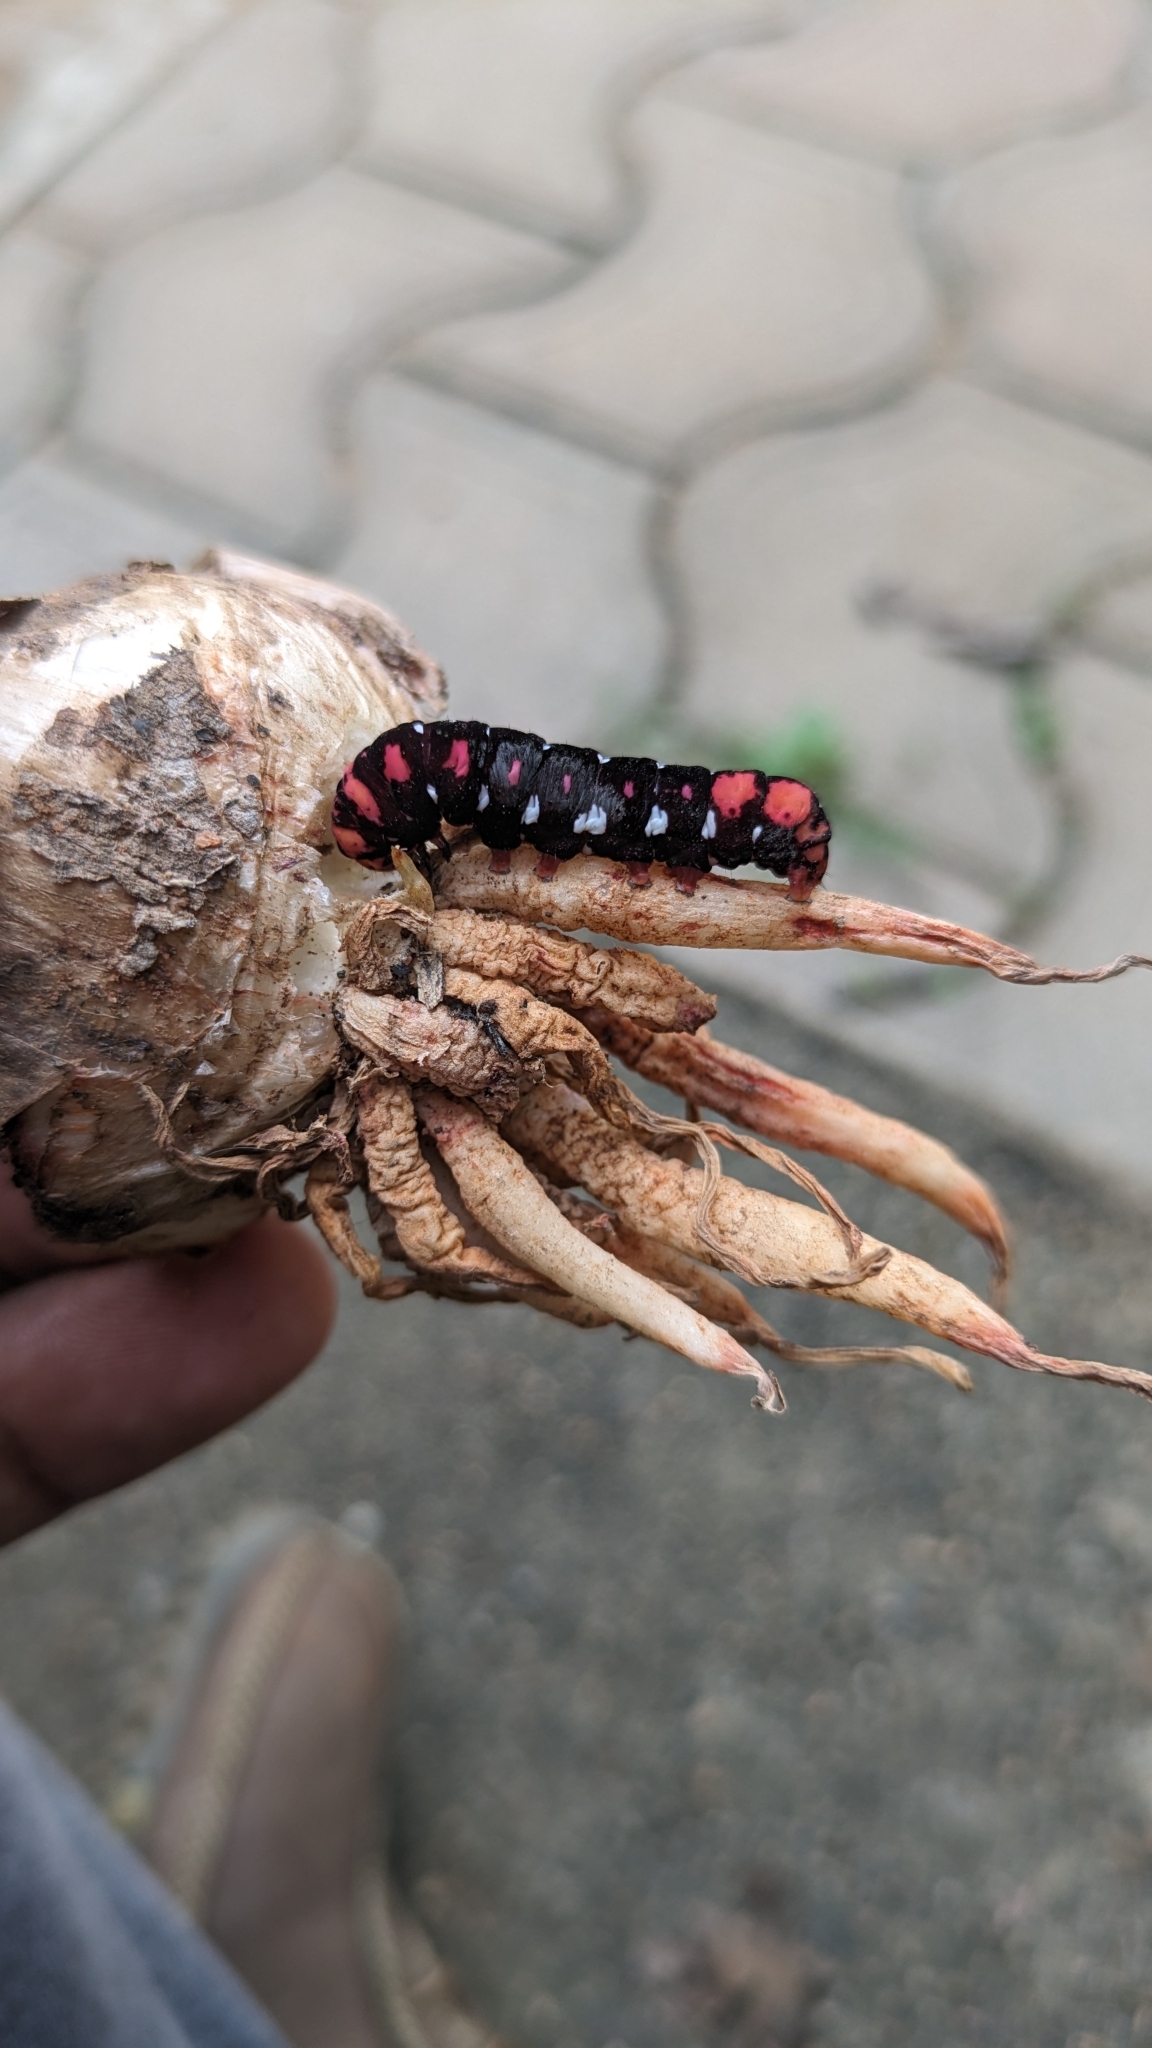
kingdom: Animalia
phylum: Arthropoda
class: Insecta
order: Lepidoptera
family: Noctuidae
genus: Polytela
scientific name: Polytela gloriosae
